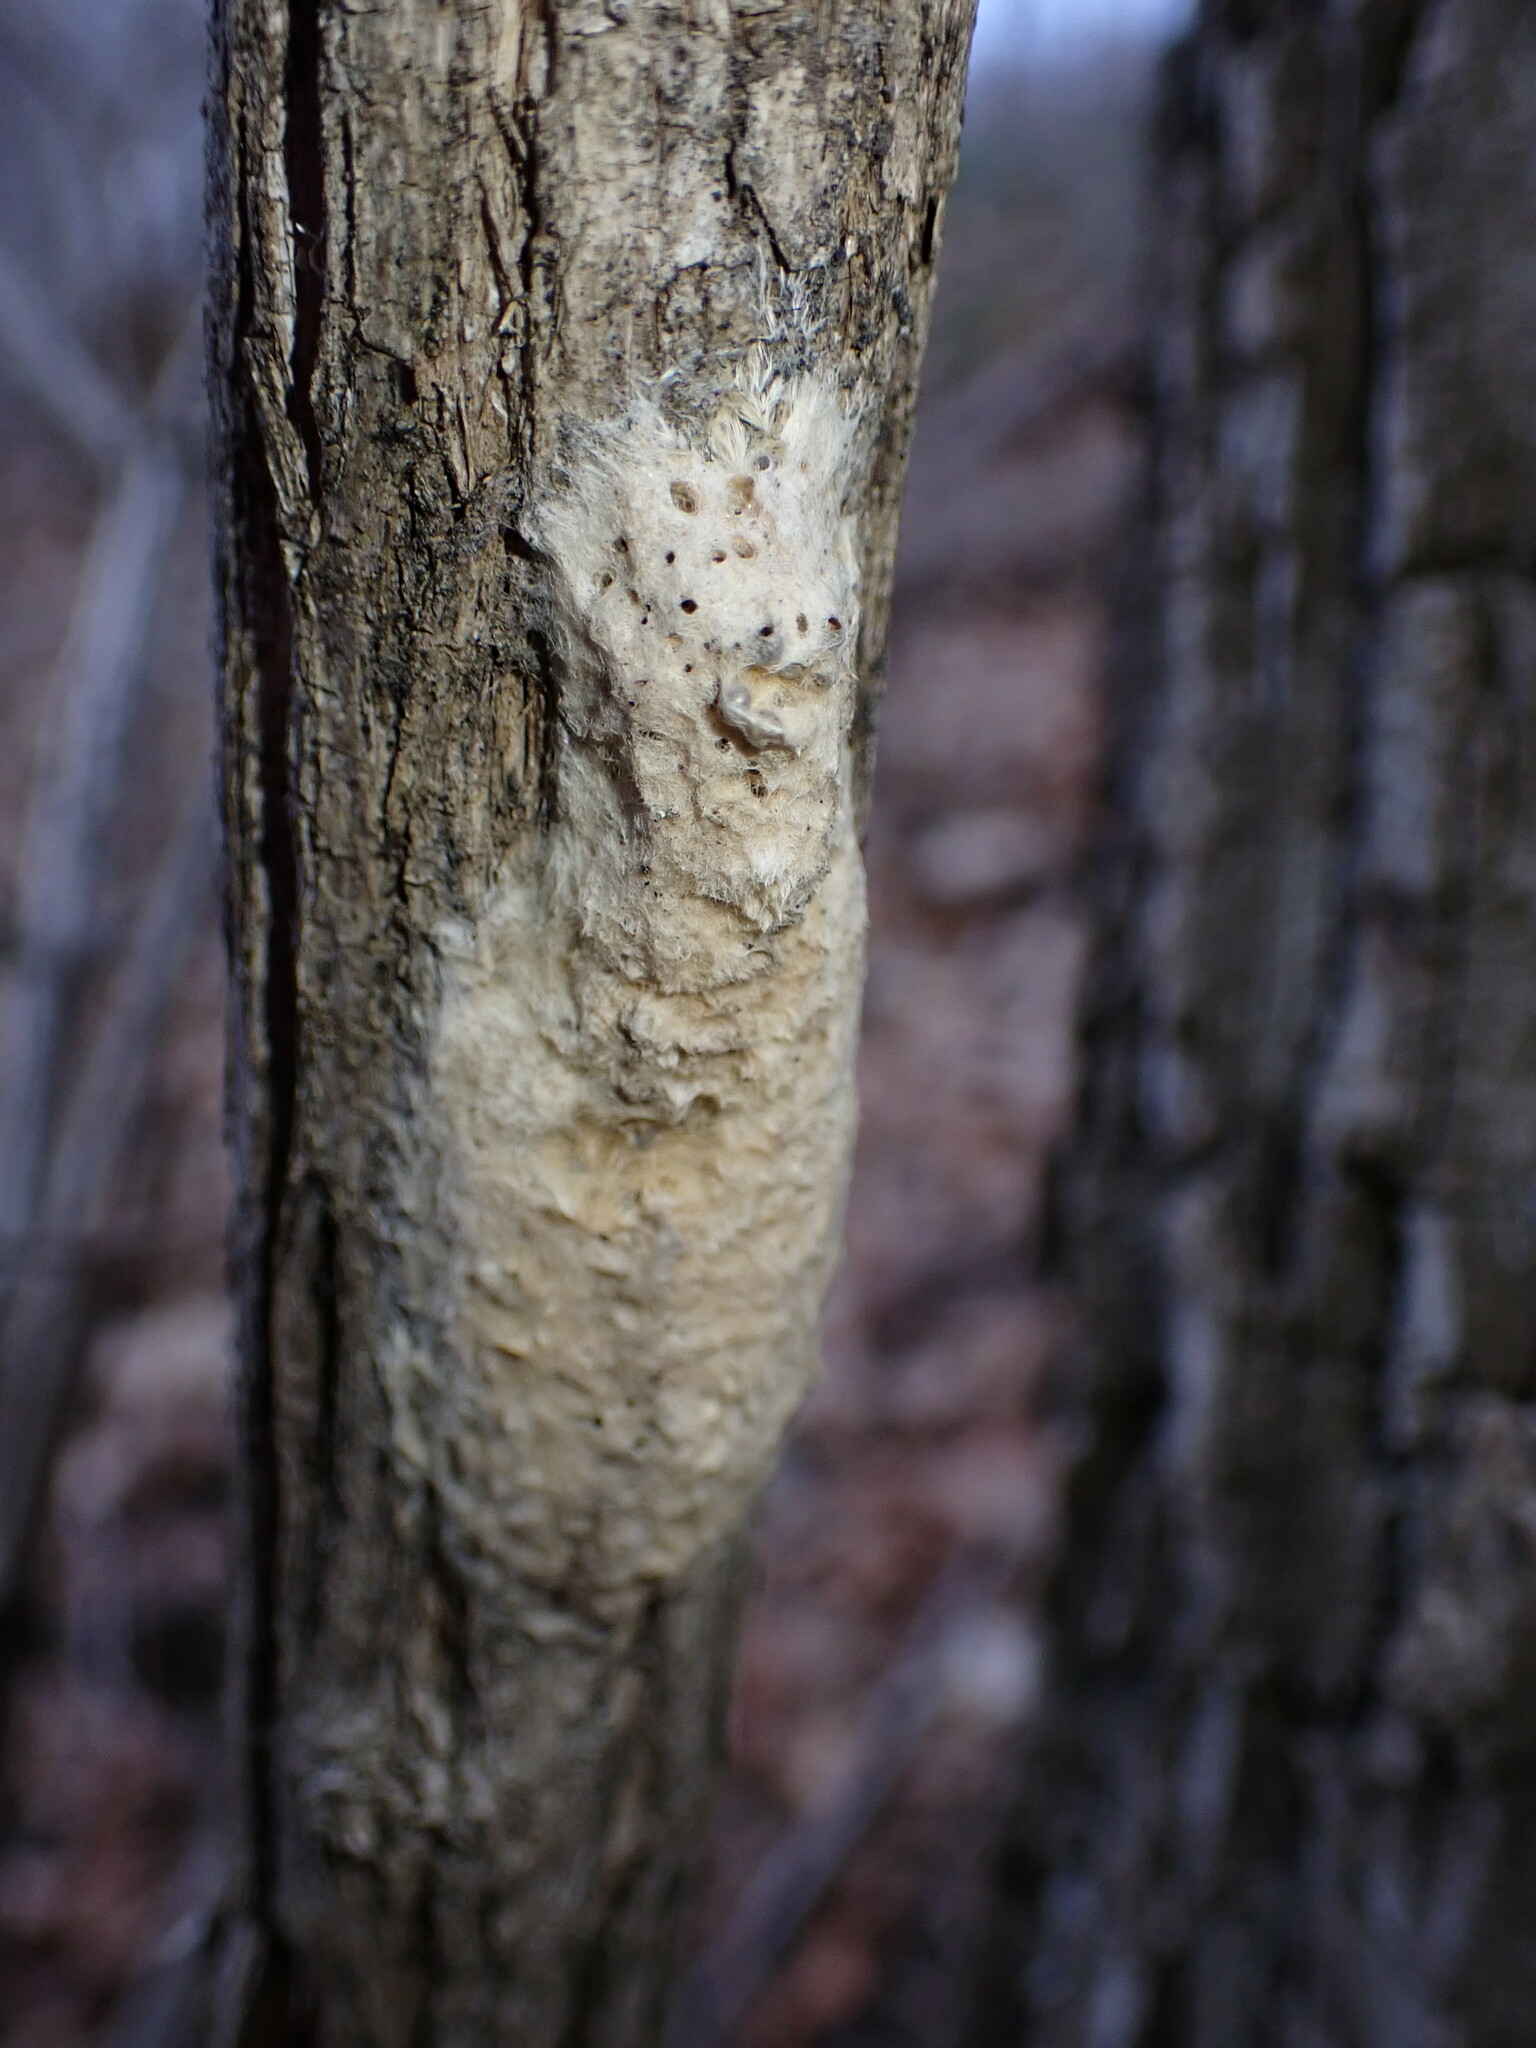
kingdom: Animalia
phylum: Arthropoda
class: Insecta
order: Lepidoptera
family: Erebidae
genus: Lymantria
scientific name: Lymantria dispar
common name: Gypsy moth
